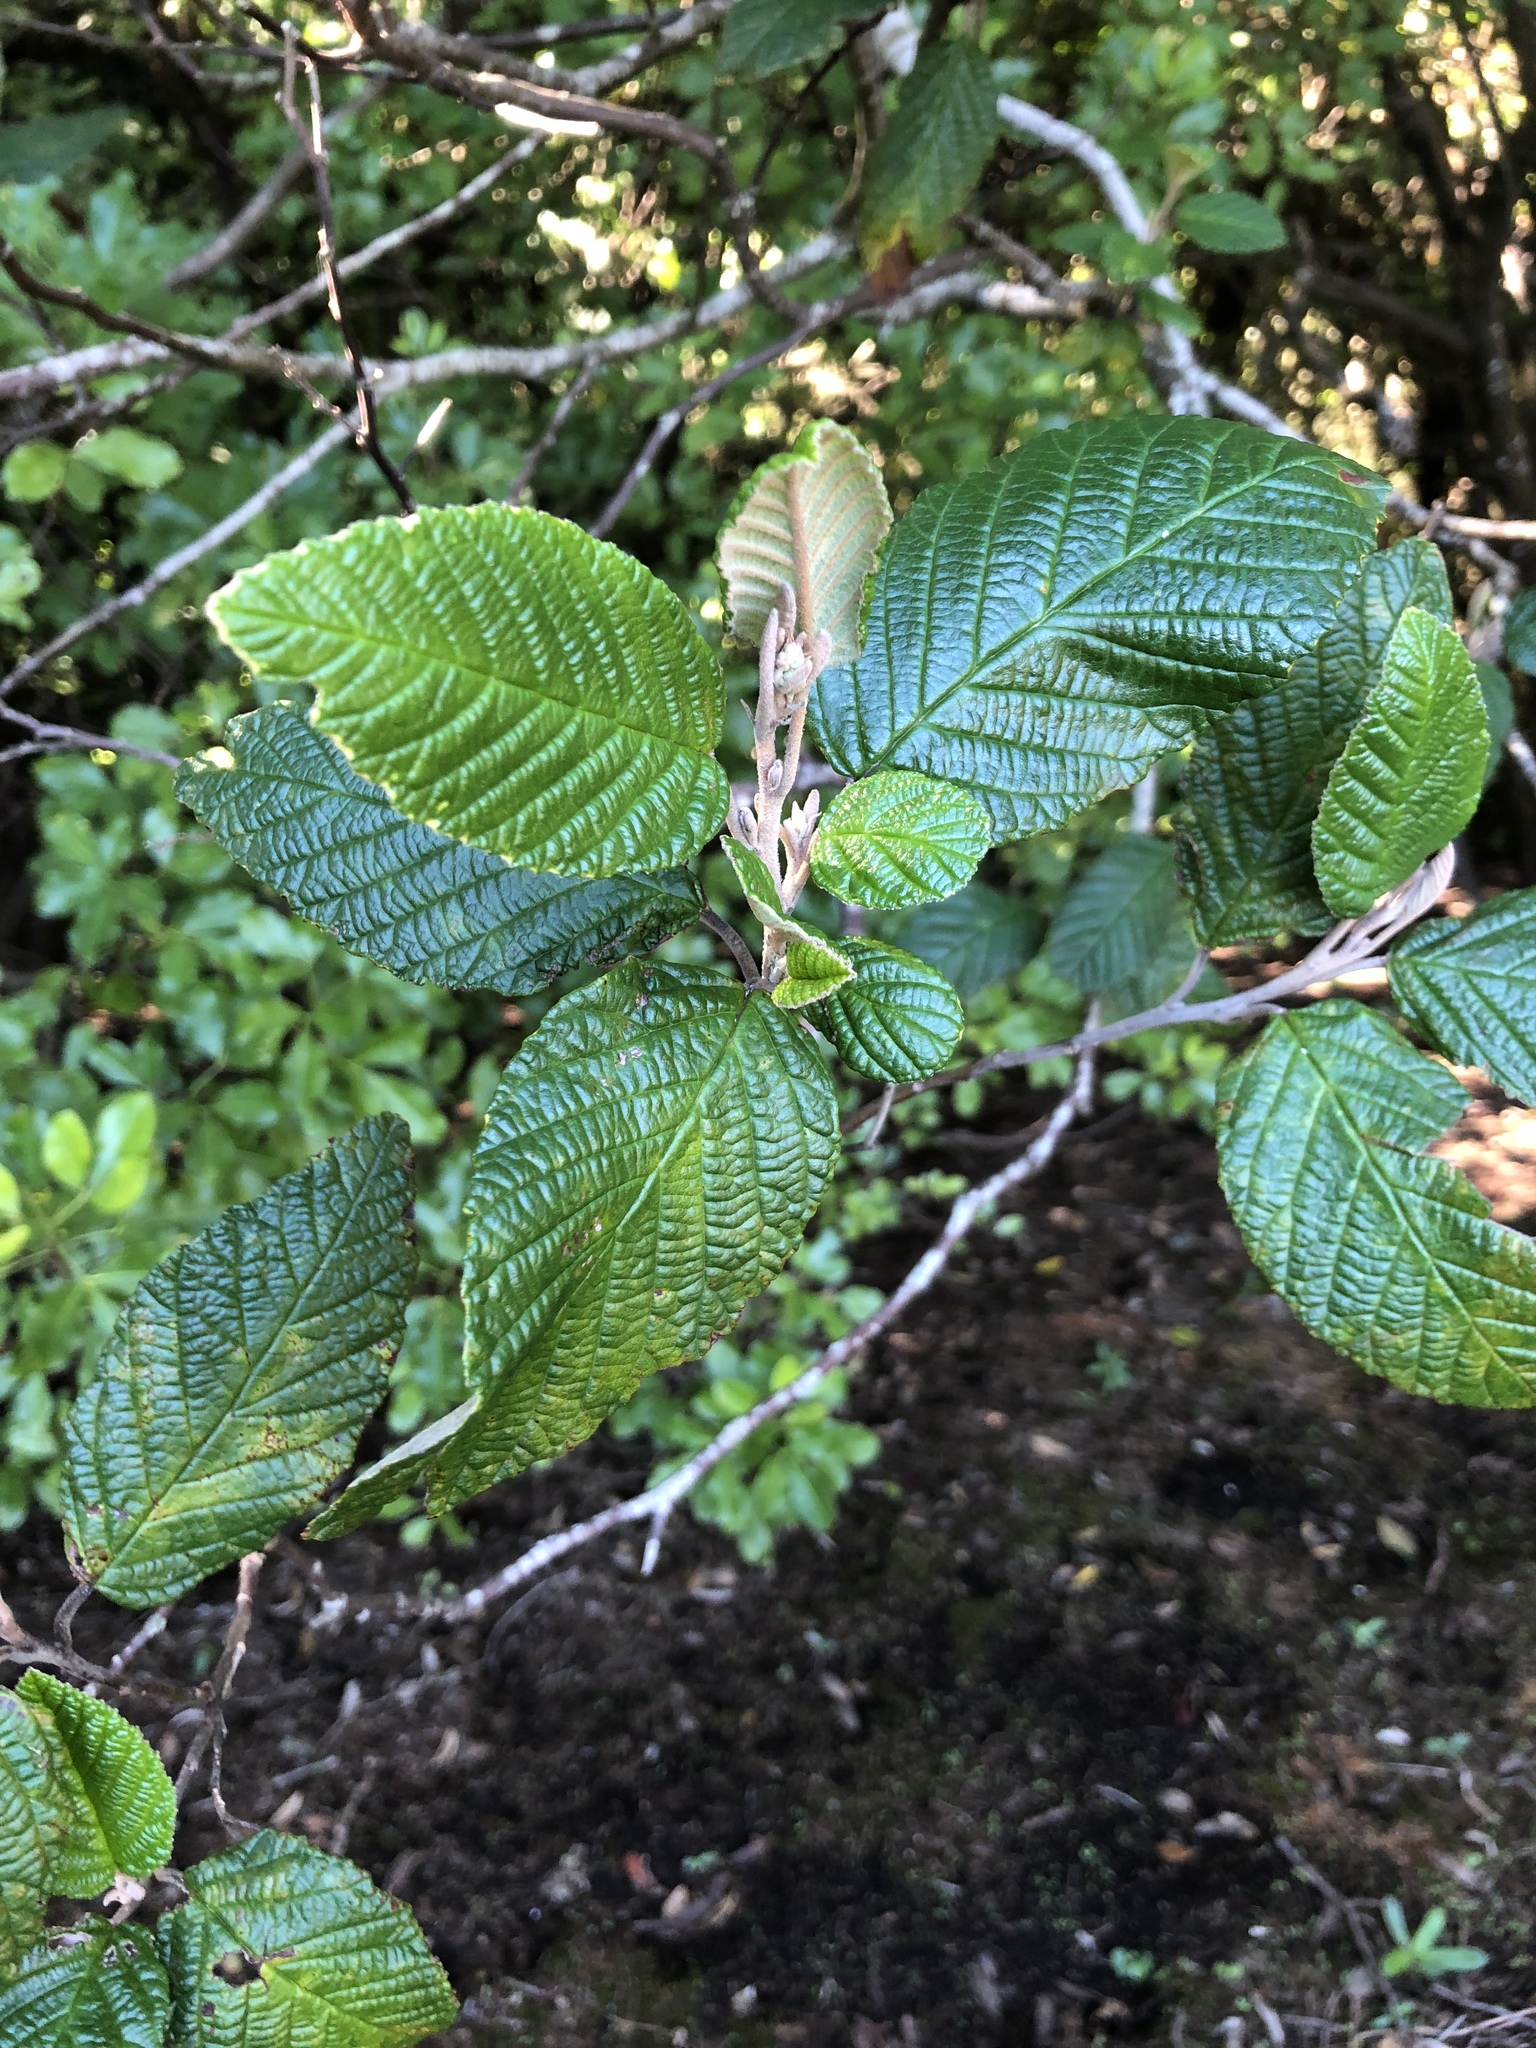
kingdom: Plantae
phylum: Tracheophyta
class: Magnoliopsida
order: Rosales
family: Rhamnaceae
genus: Pomaderris
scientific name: Pomaderris aspera
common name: Hazel pomaderris
